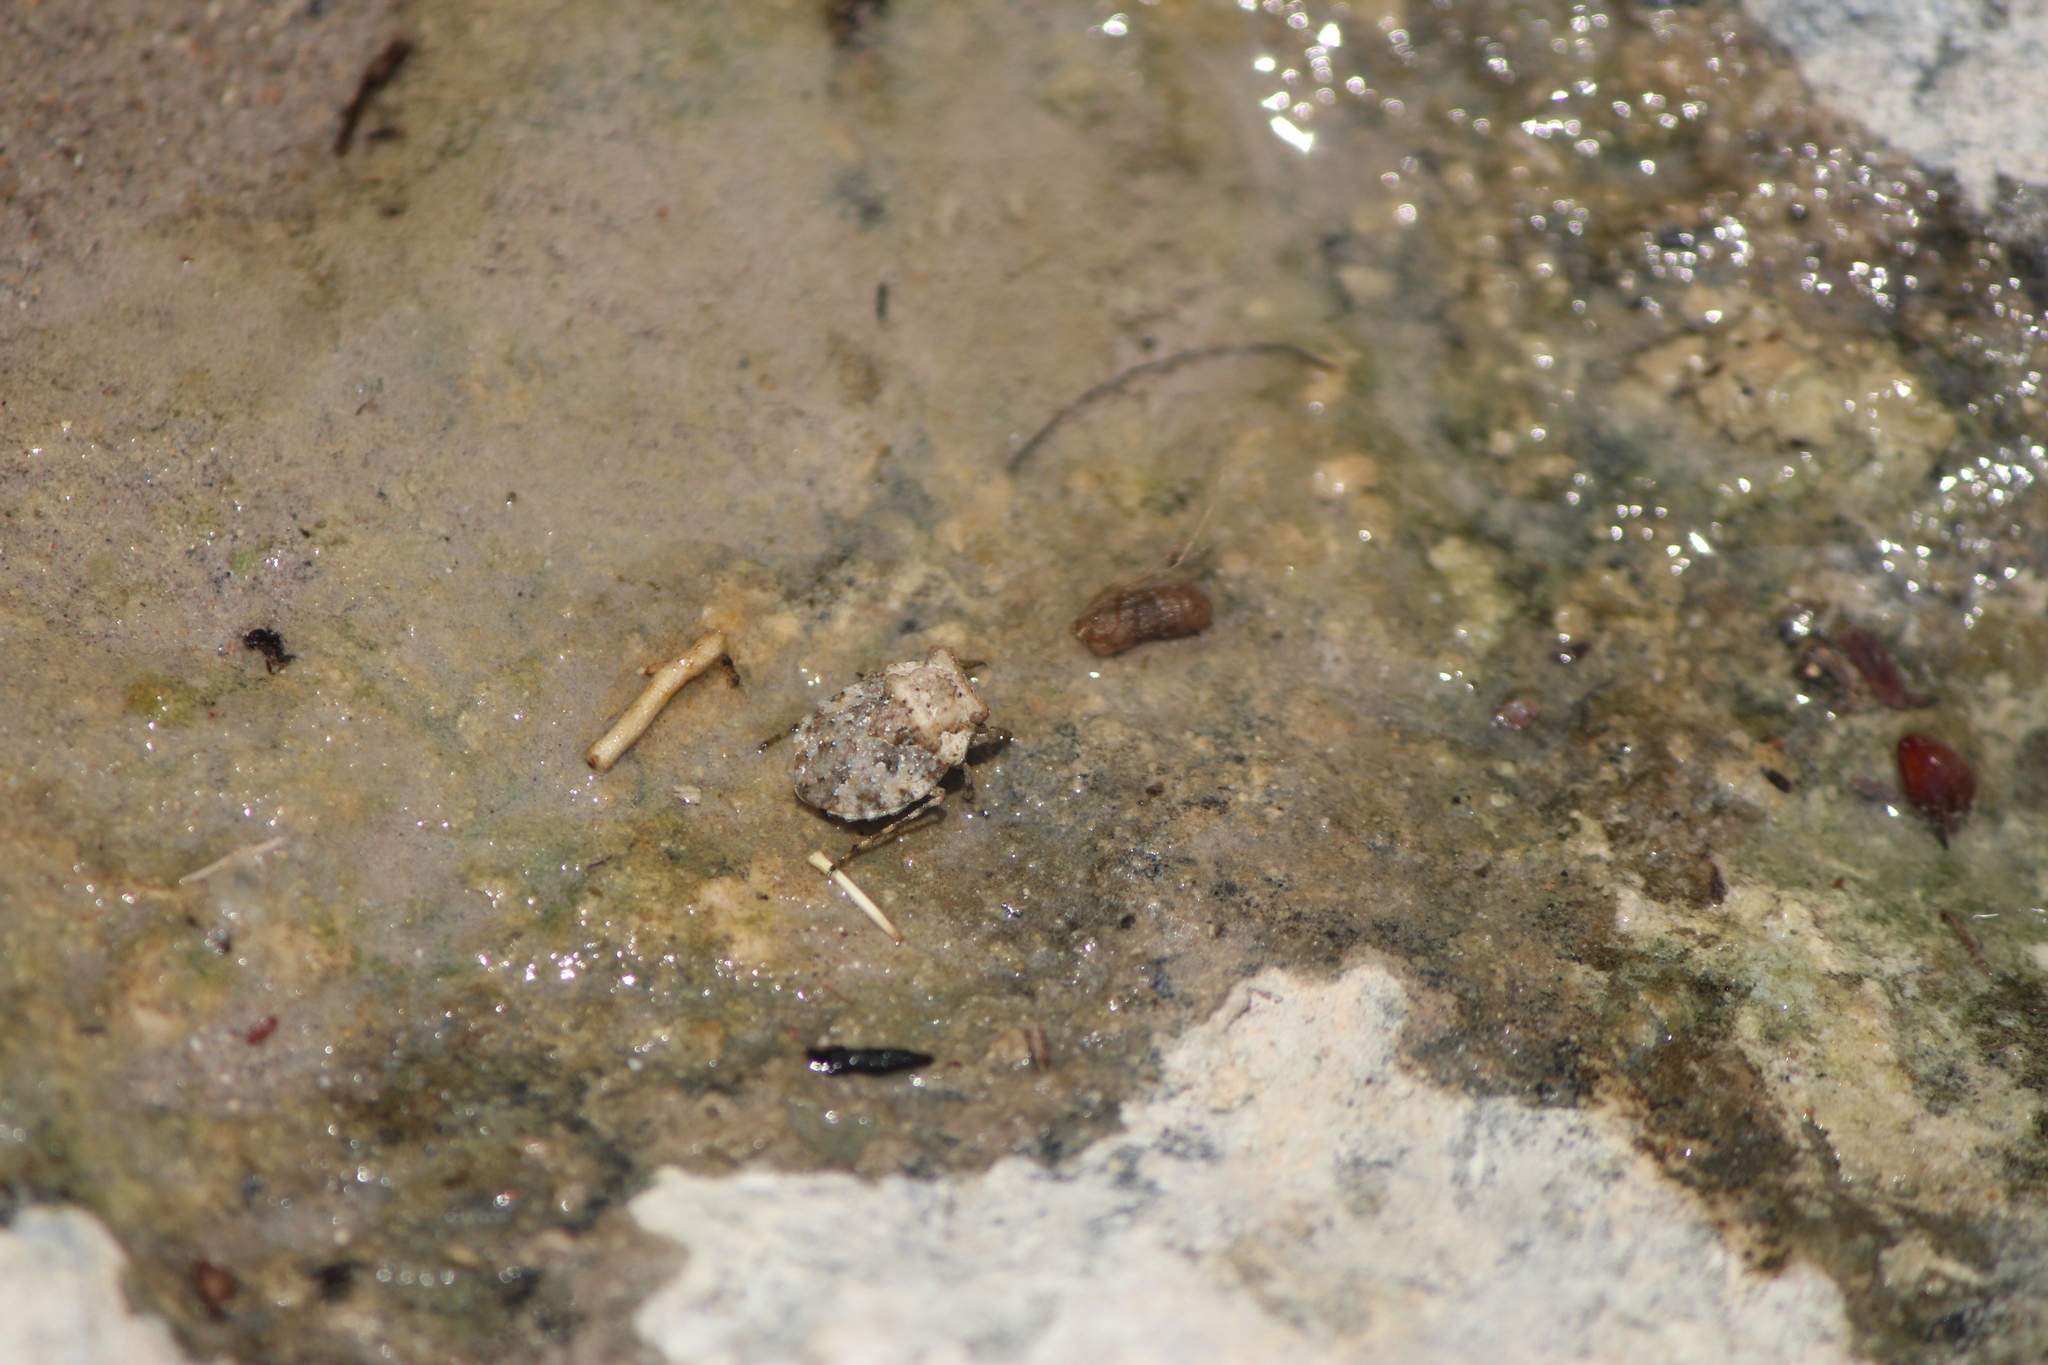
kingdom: Animalia
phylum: Arthropoda
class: Insecta
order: Hemiptera
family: Gelastocoridae
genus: Gelastocoris
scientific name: Gelastocoris rotundatus
